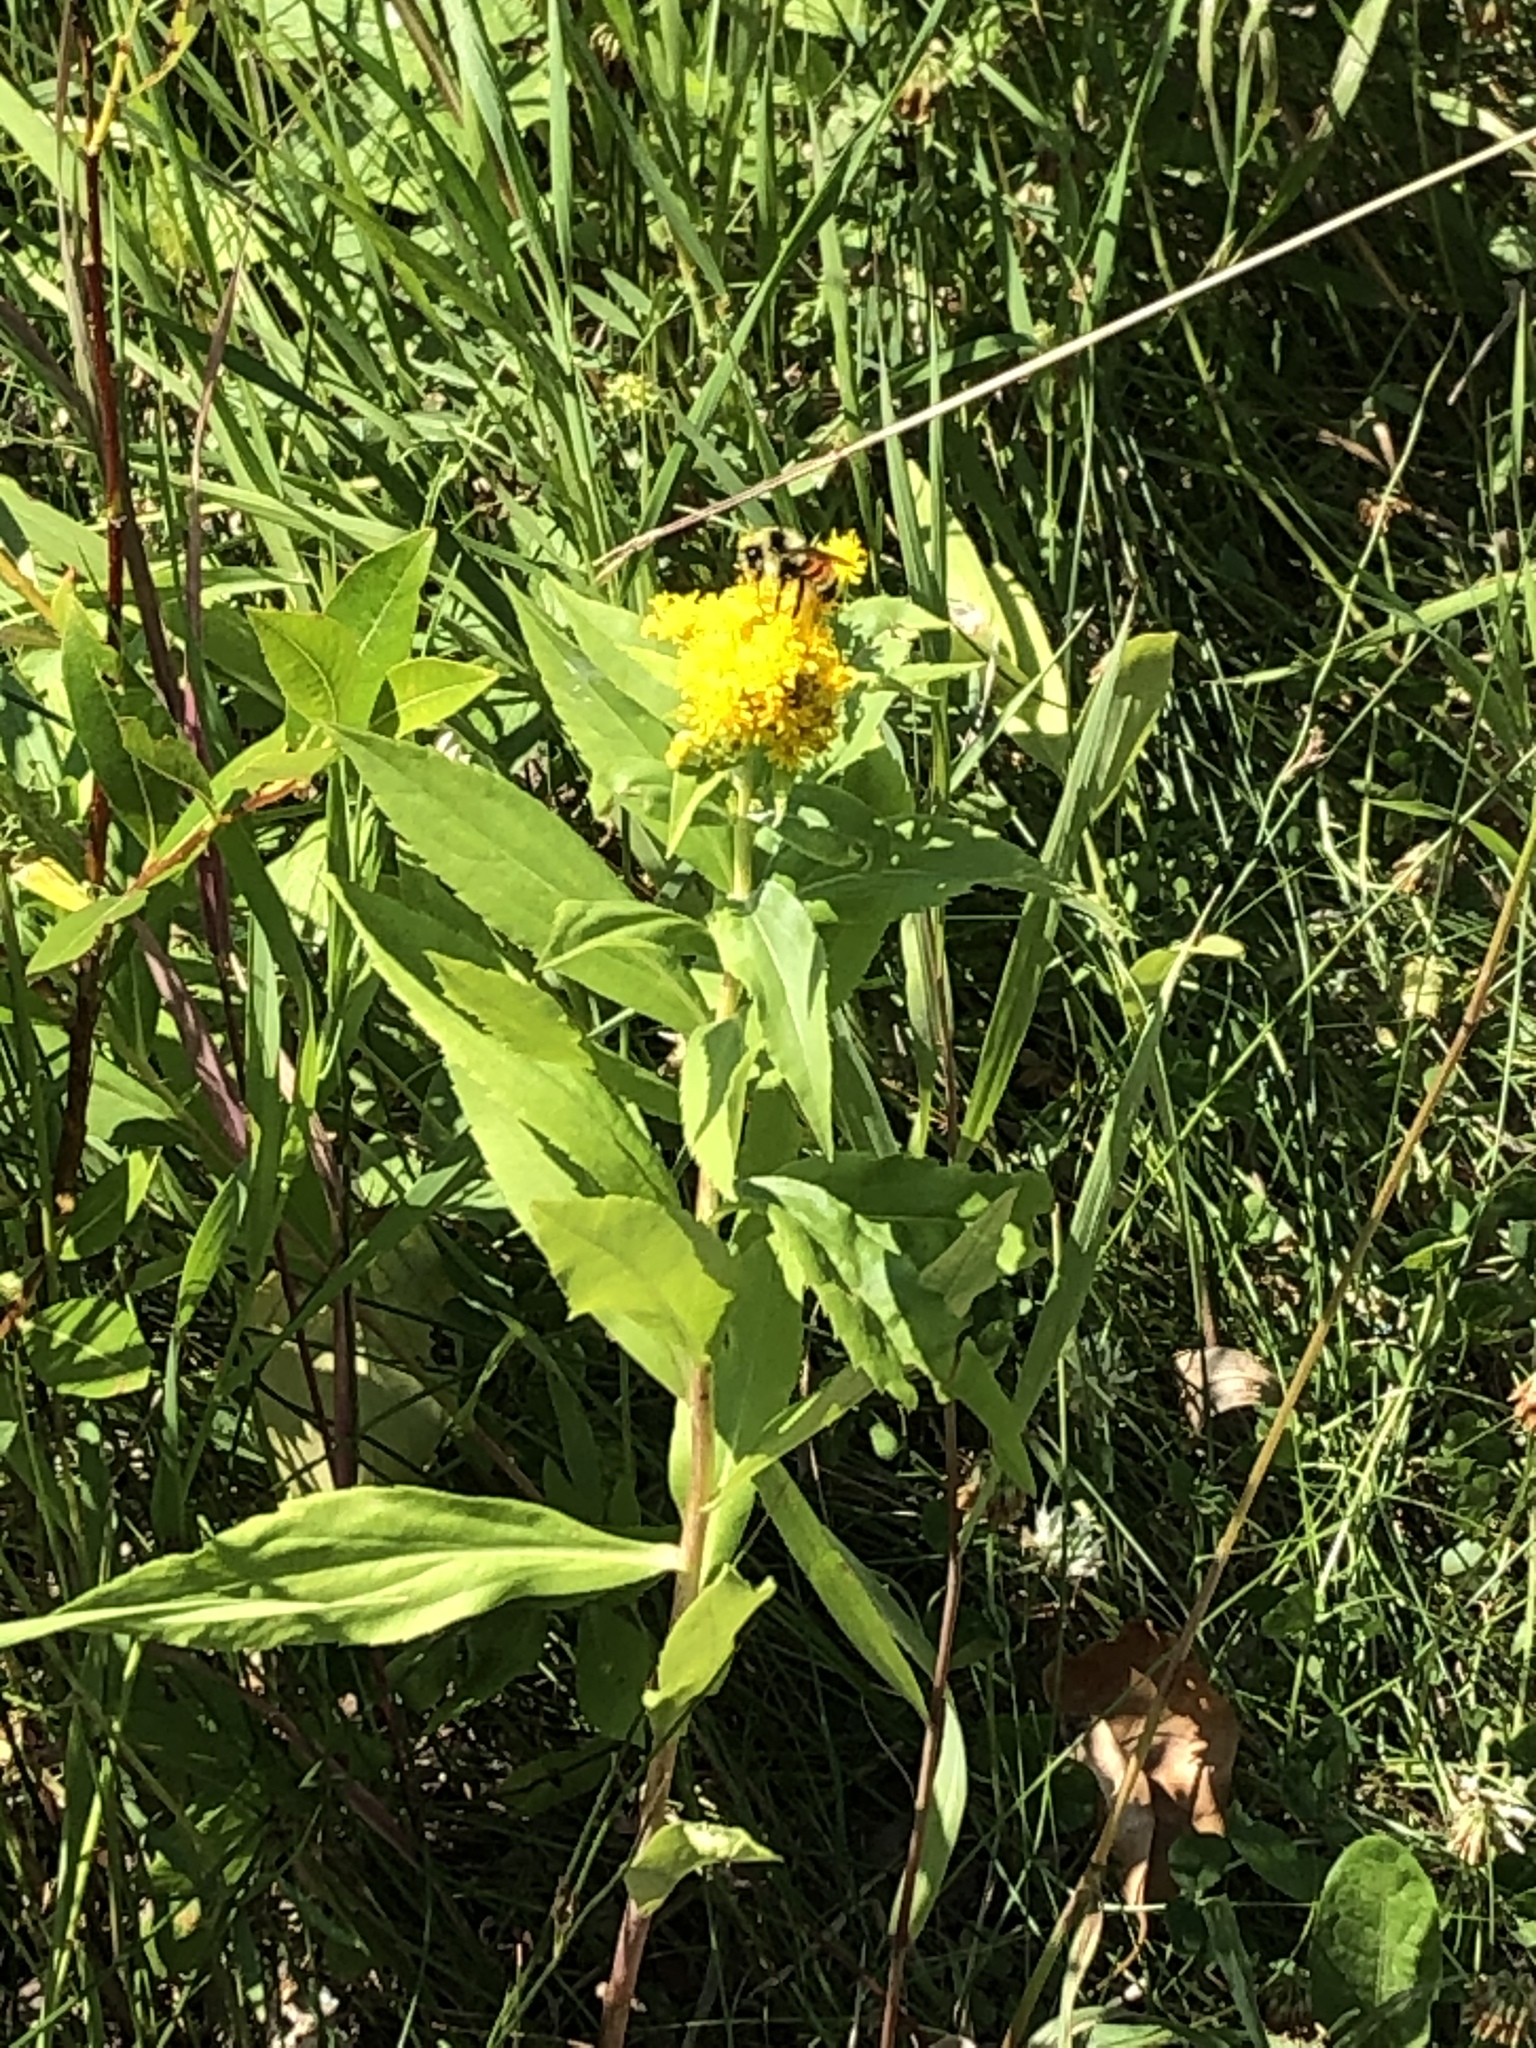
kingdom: Animalia
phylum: Arthropoda
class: Insecta
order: Hymenoptera
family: Apidae
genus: Bombus
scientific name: Bombus ternarius
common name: Tri-colored bumble bee
